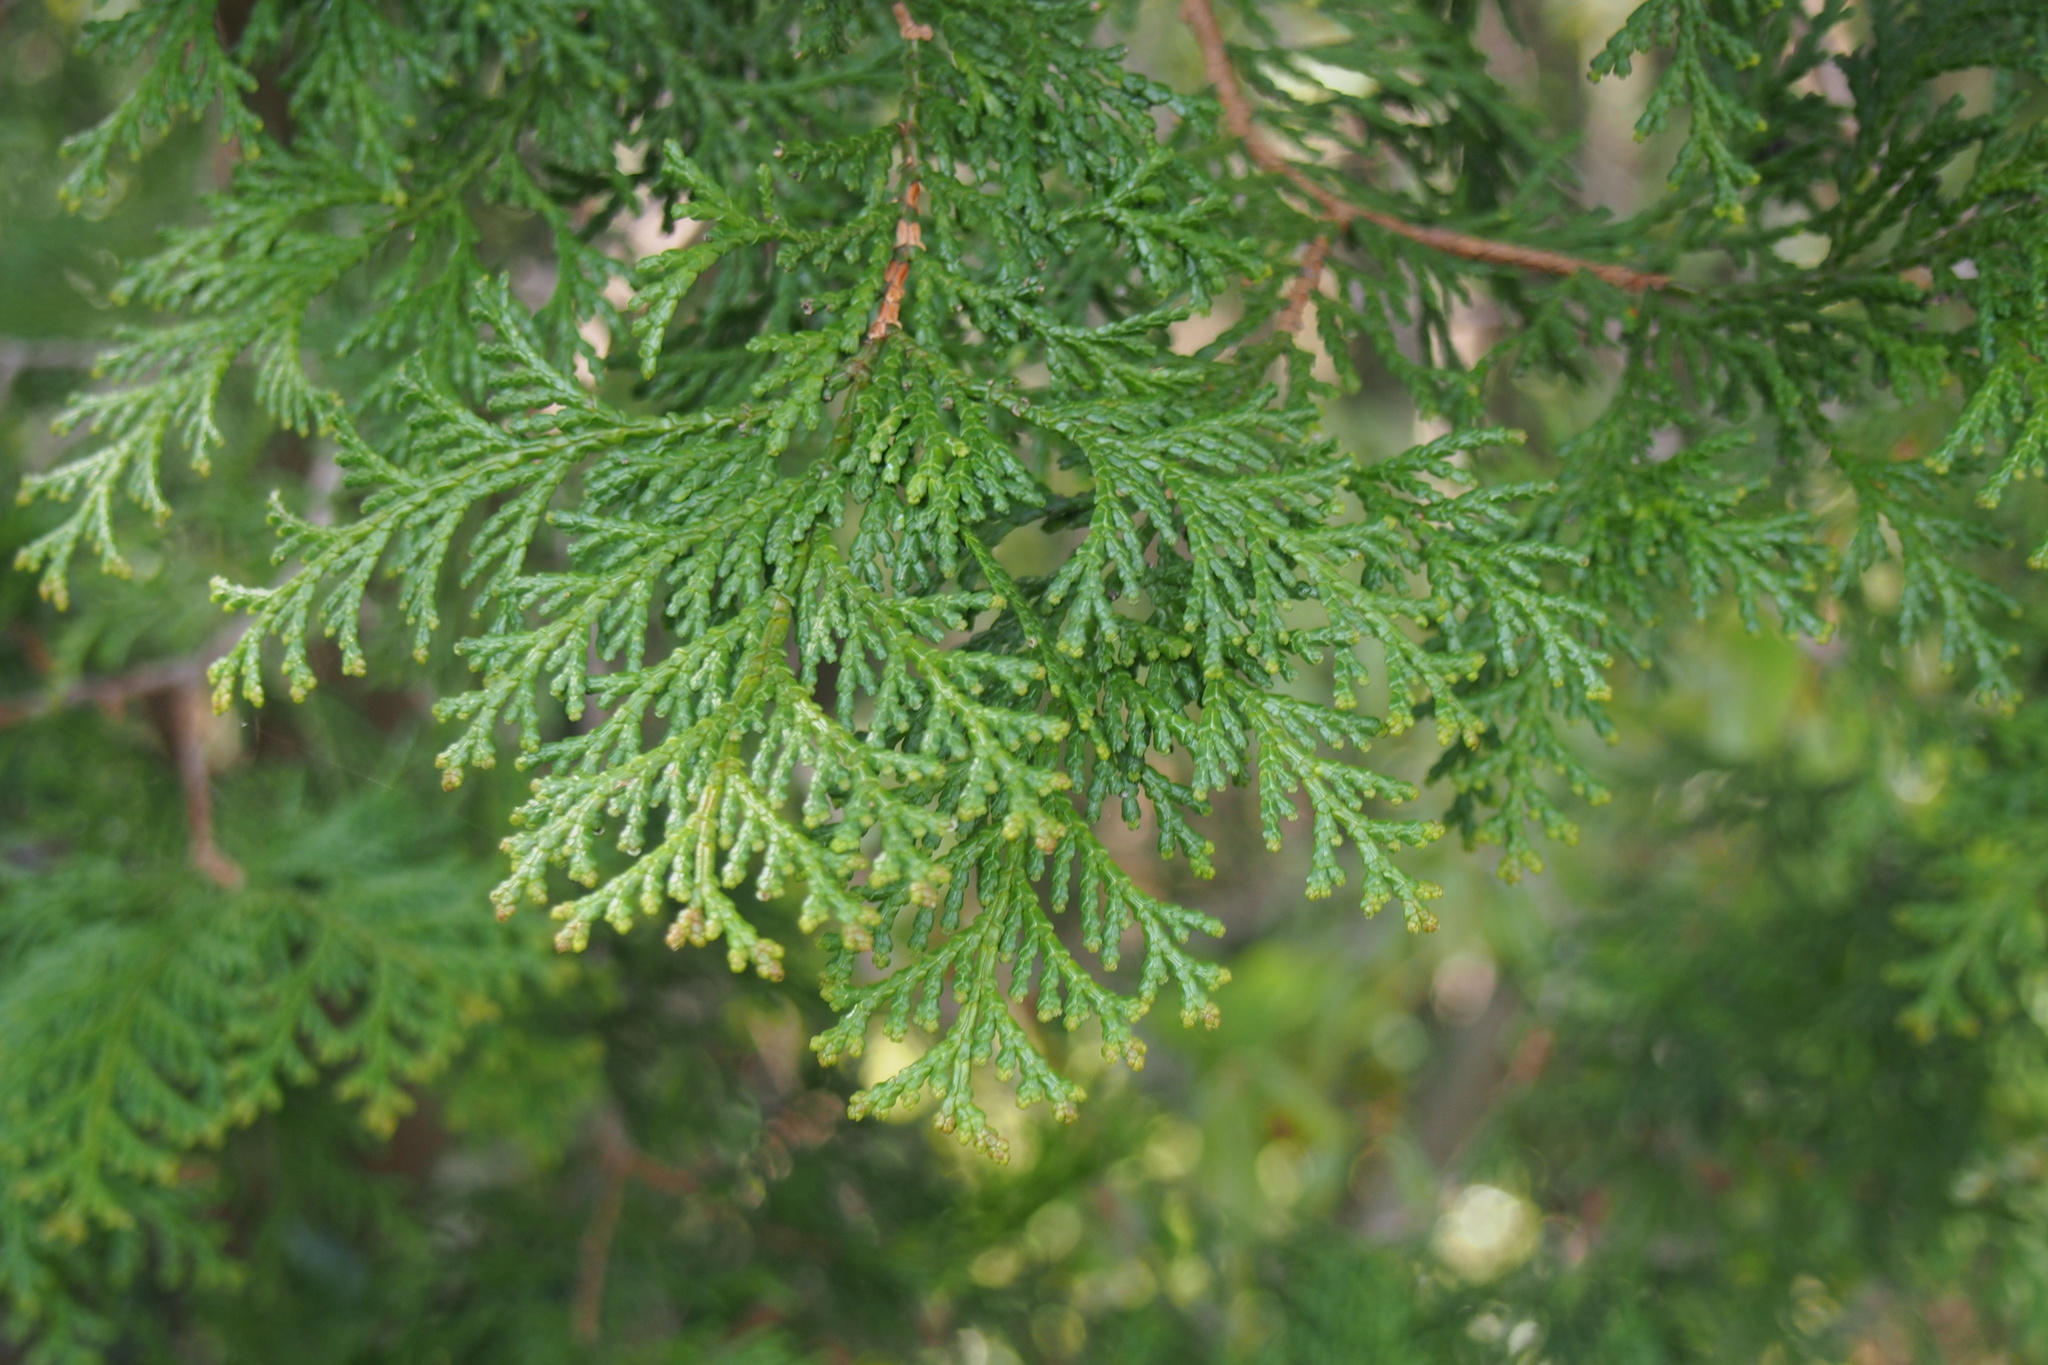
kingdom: Plantae
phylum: Tracheophyta
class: Pinopsida
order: Pinales
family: Cupressaceae
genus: Chamaecyparis
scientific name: Chamaecyparis obtusa
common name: Hinoki false cypress
